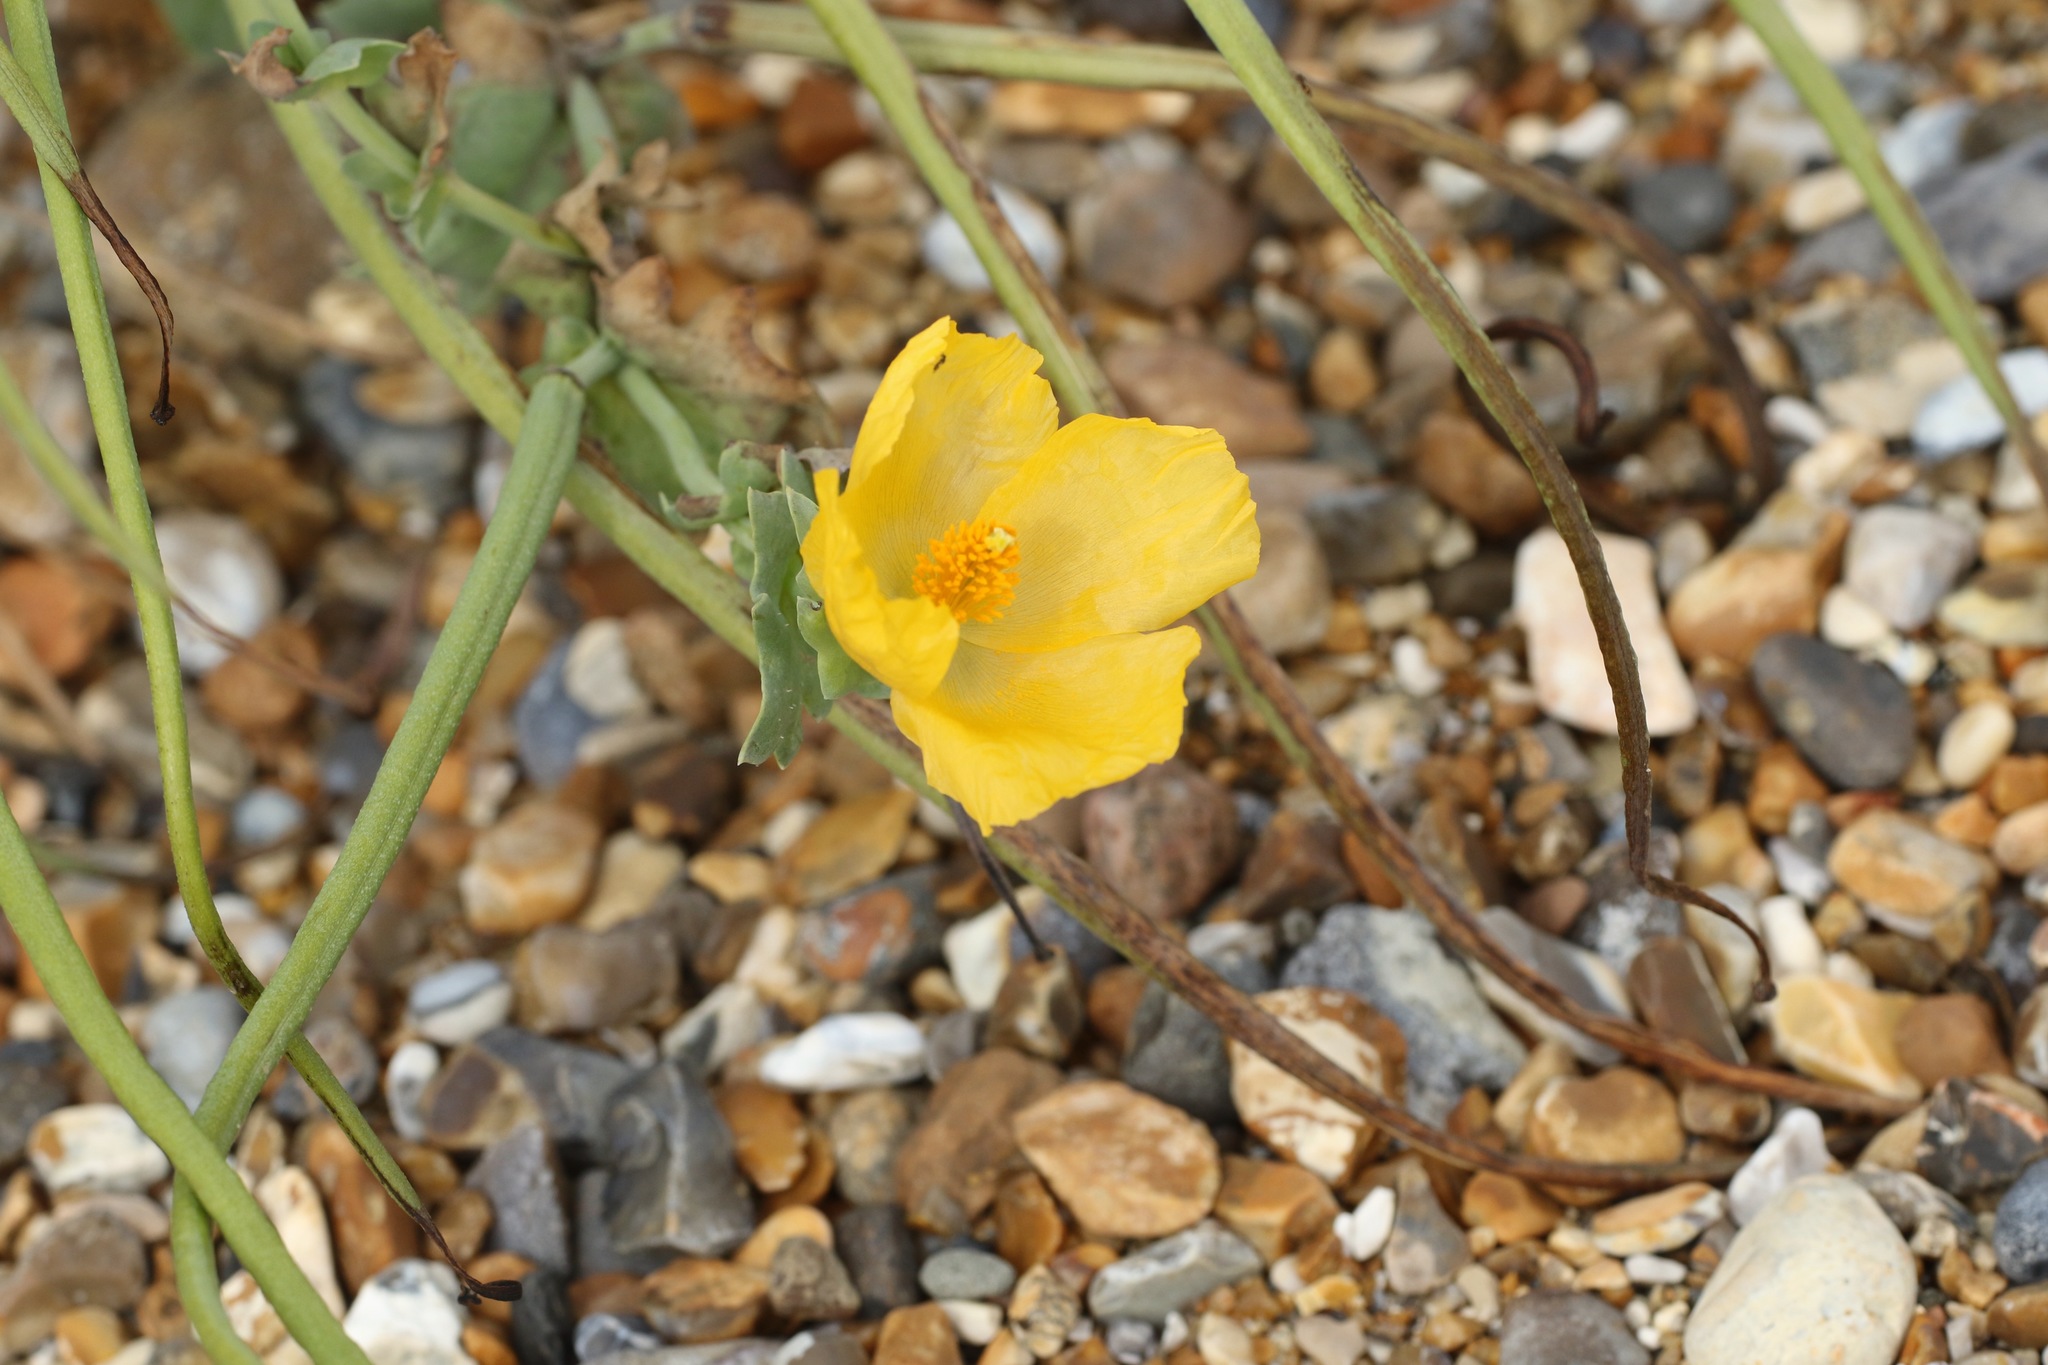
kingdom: Plantae
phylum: Tracheophyta
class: Magnoliopsida
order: Ranunculales
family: Papaveraceae
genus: Glaucium
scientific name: Glaucium flavum
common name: Yellow horned-poppy
